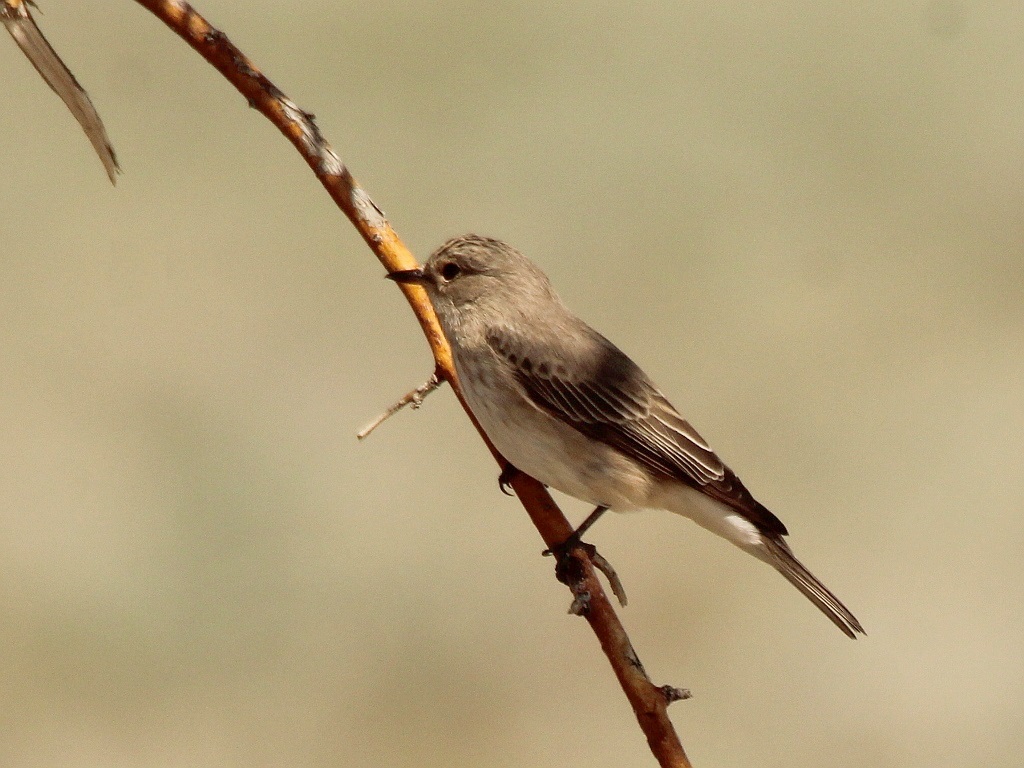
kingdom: Animalia
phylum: Chordata
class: Aves
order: Passeriformes
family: Muscicapidae
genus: Muscicapa
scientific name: Muscicapa striata
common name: Spotted flycatcher
